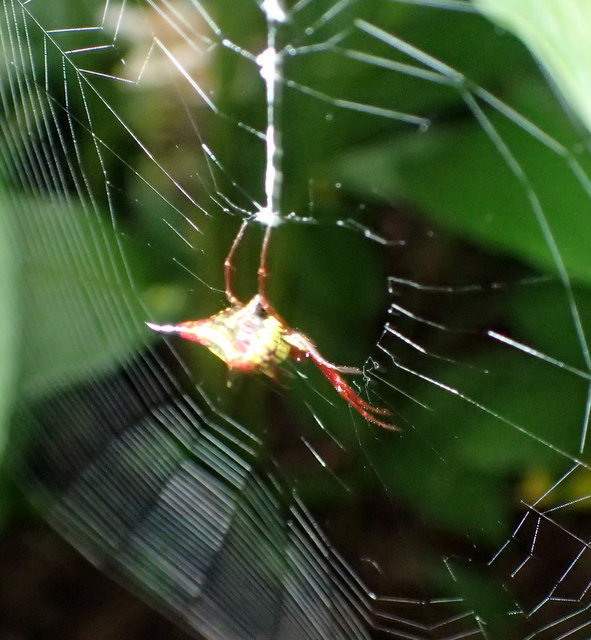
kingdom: Animalia
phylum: Arthropoda
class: Arachnida
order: Araneae
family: Araneidae
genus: Micrathena
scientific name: Micrathena sagittata
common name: Orb weavers
